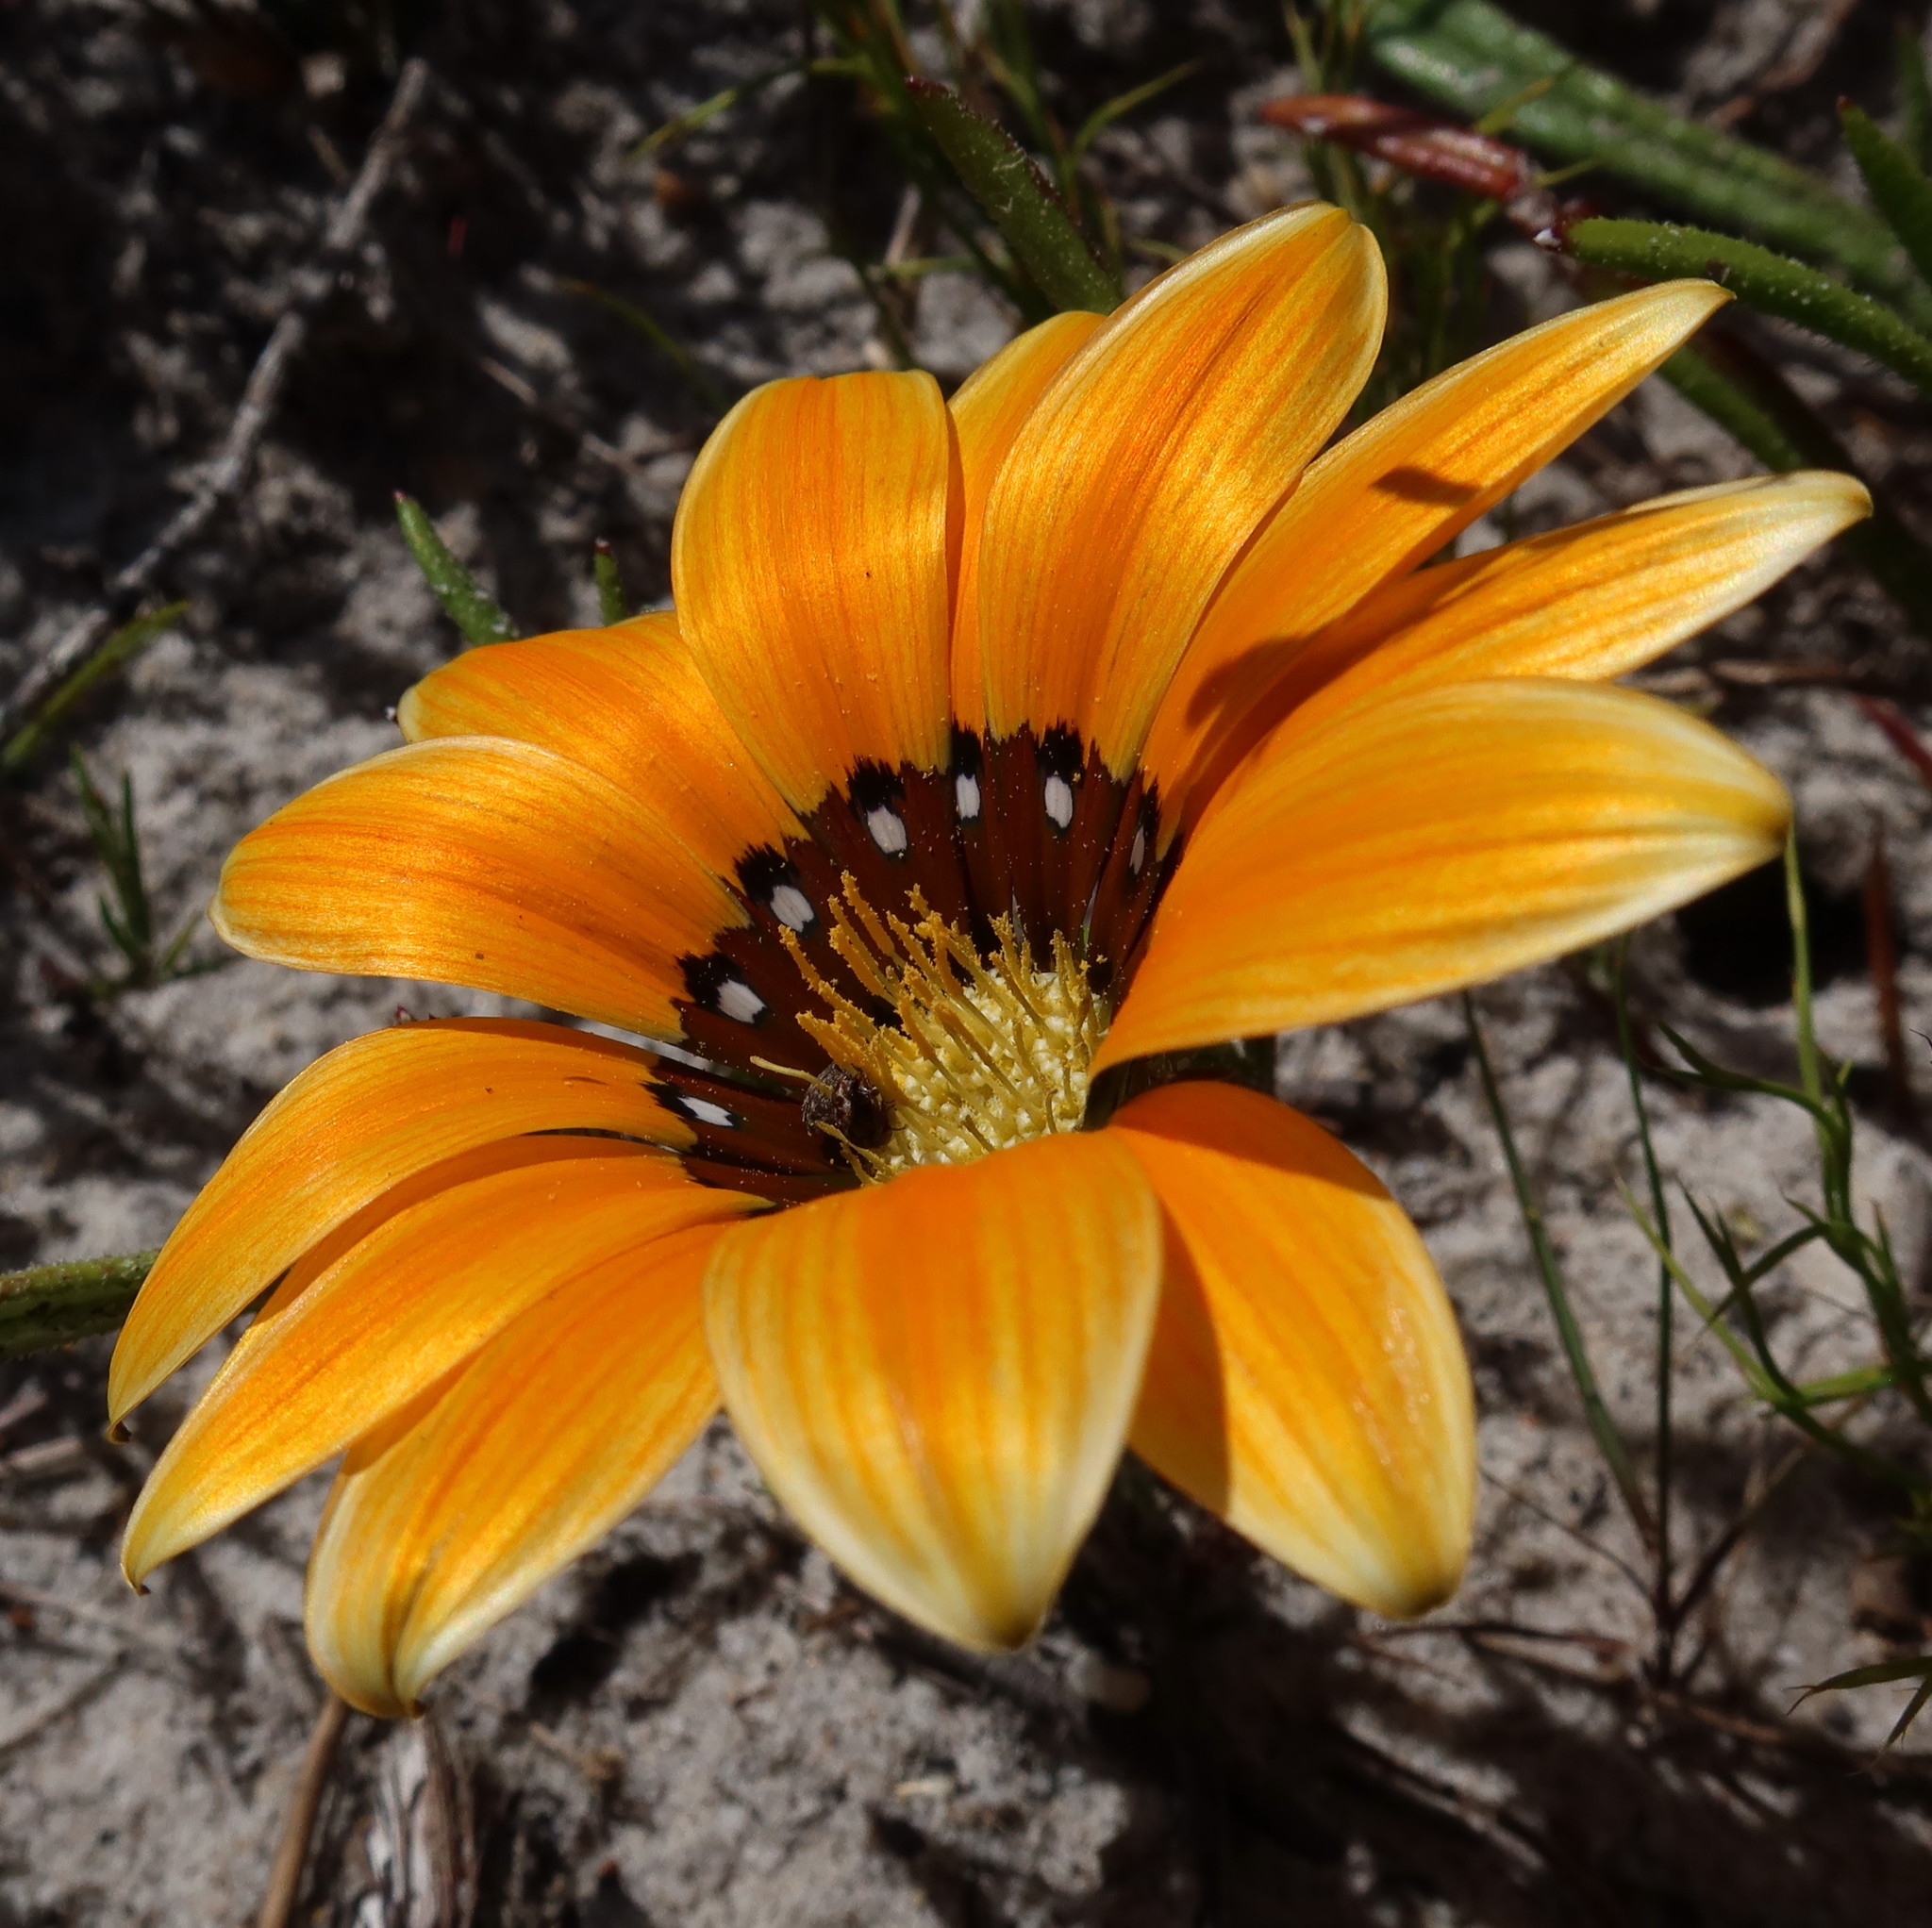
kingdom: Plantae
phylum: Tracheophyta
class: Magnoliopsida
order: Asterales
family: Asteraceae
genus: Gazania
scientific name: Gazania pectinata
